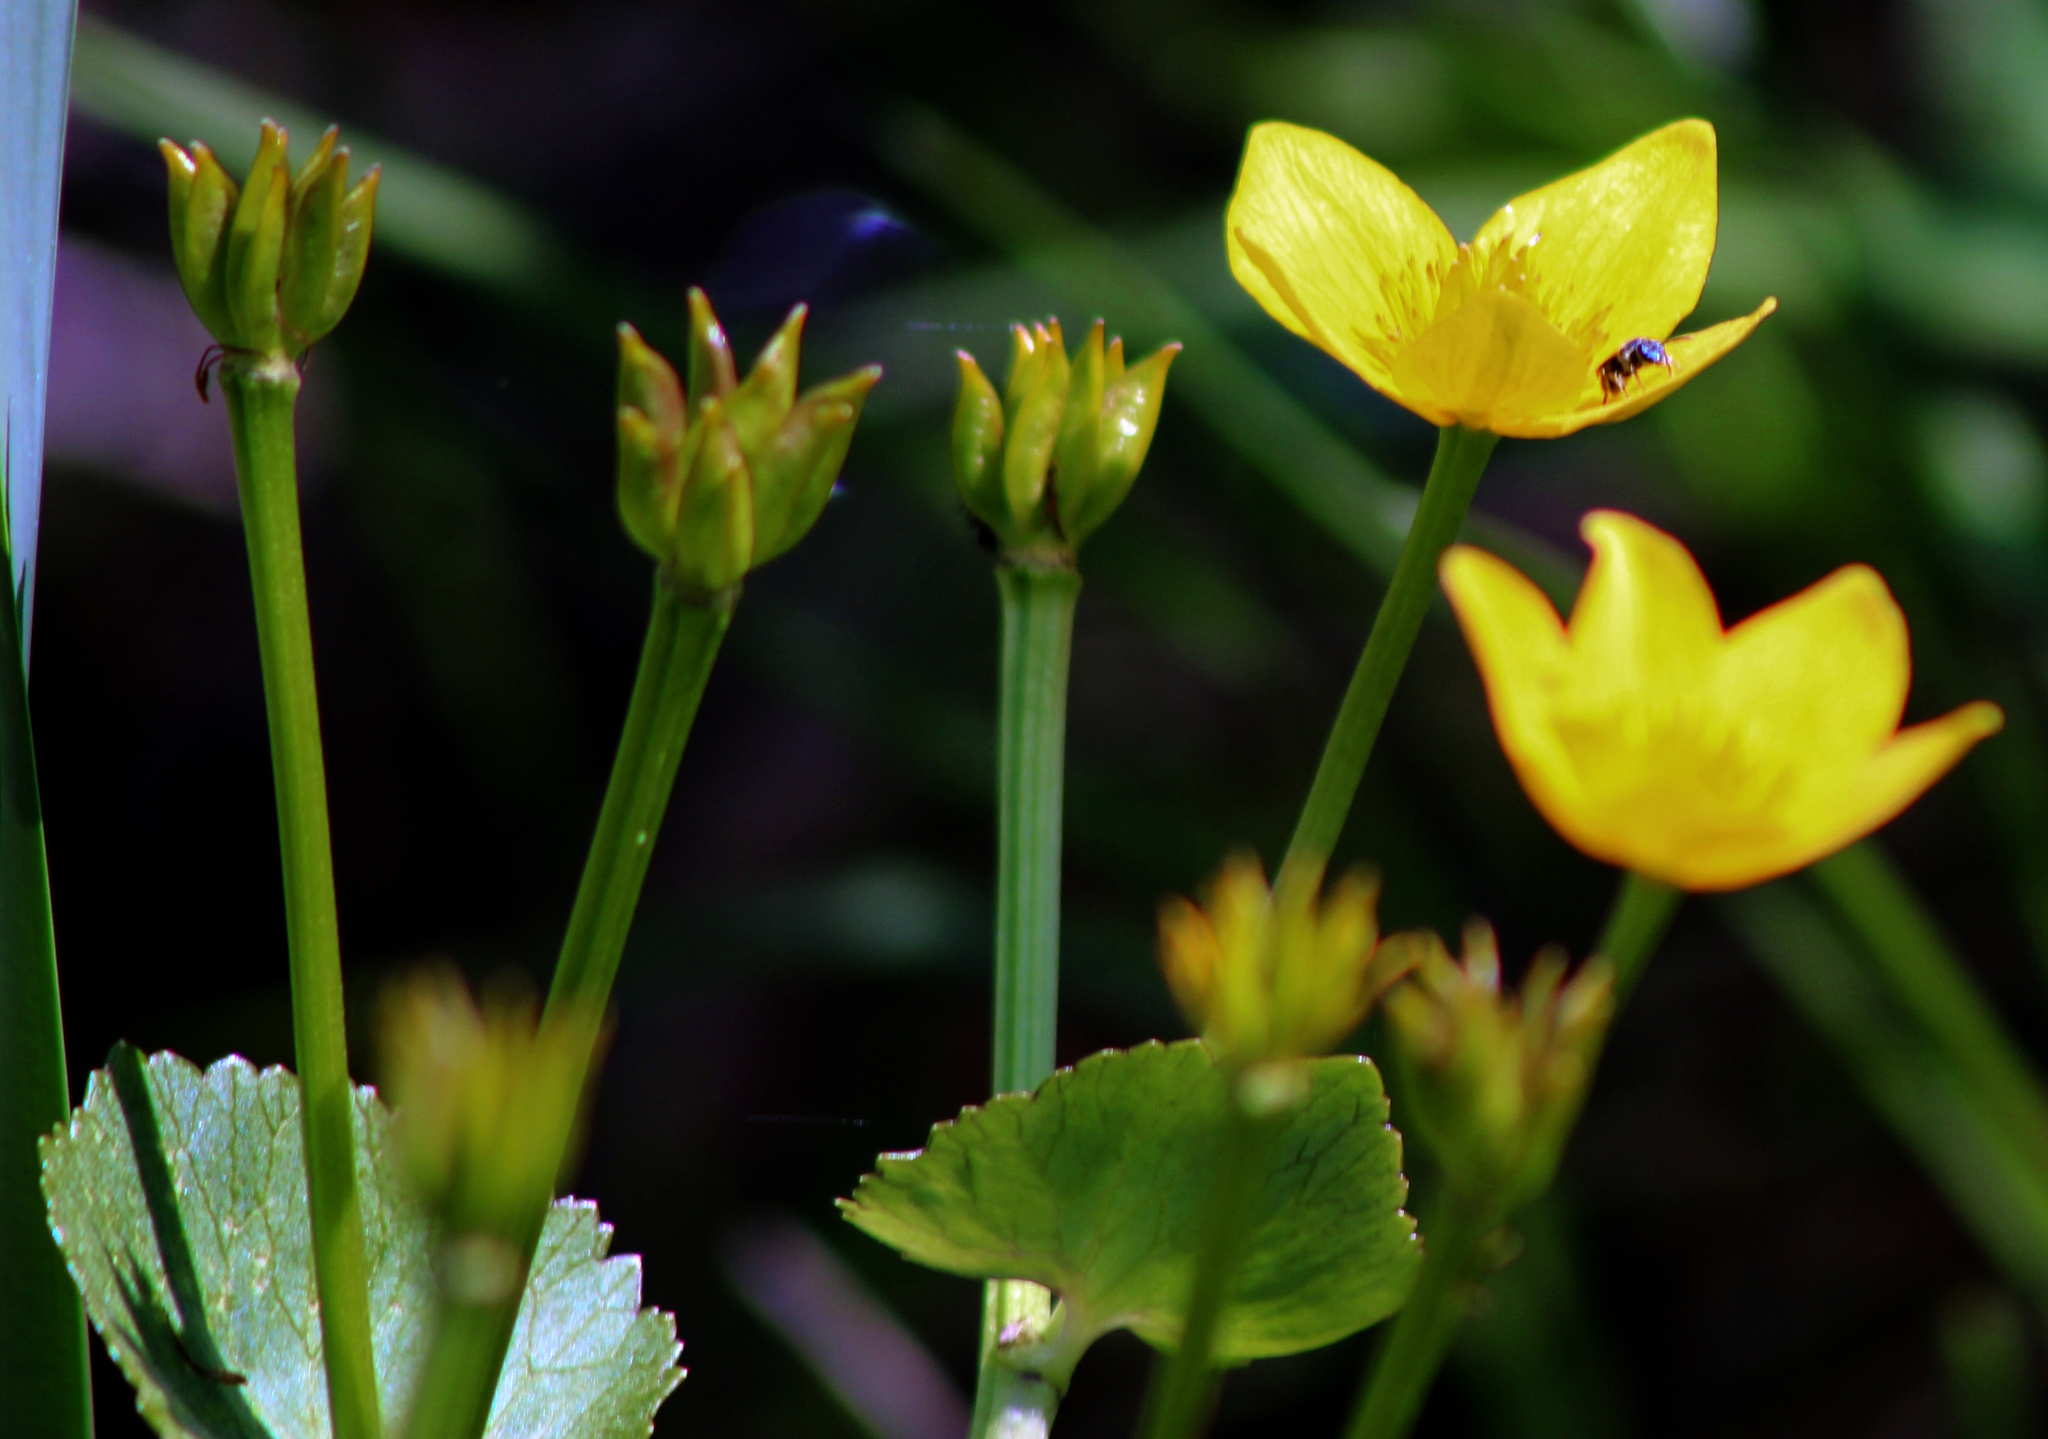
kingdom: Plantae
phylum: Tracheophyta
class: Magnoliopsida
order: Ranunculales
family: Ranunculaceae
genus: Caltha
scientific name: Caltha palustris
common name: Marsh marigold
